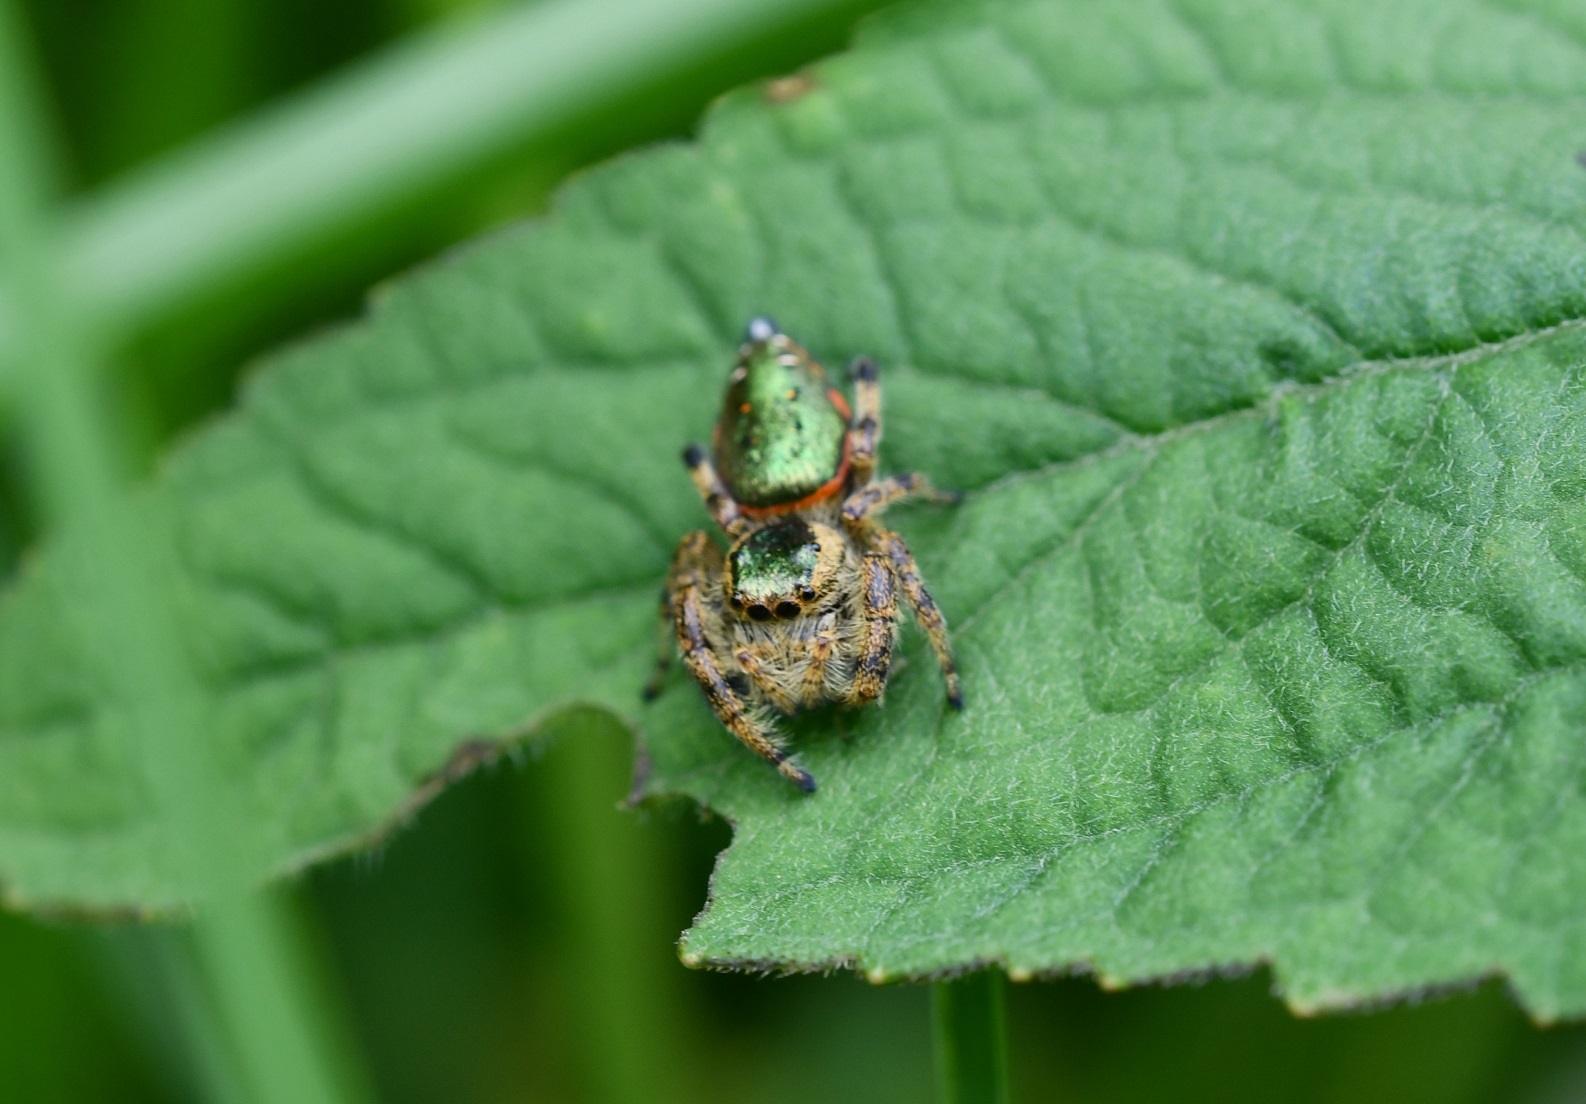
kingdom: Animalia
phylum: Arthropoda
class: Arachnida
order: Araneae
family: Salticidae
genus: Paraphidippus
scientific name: Paraphidippus aurantius
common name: Jumping spiders
